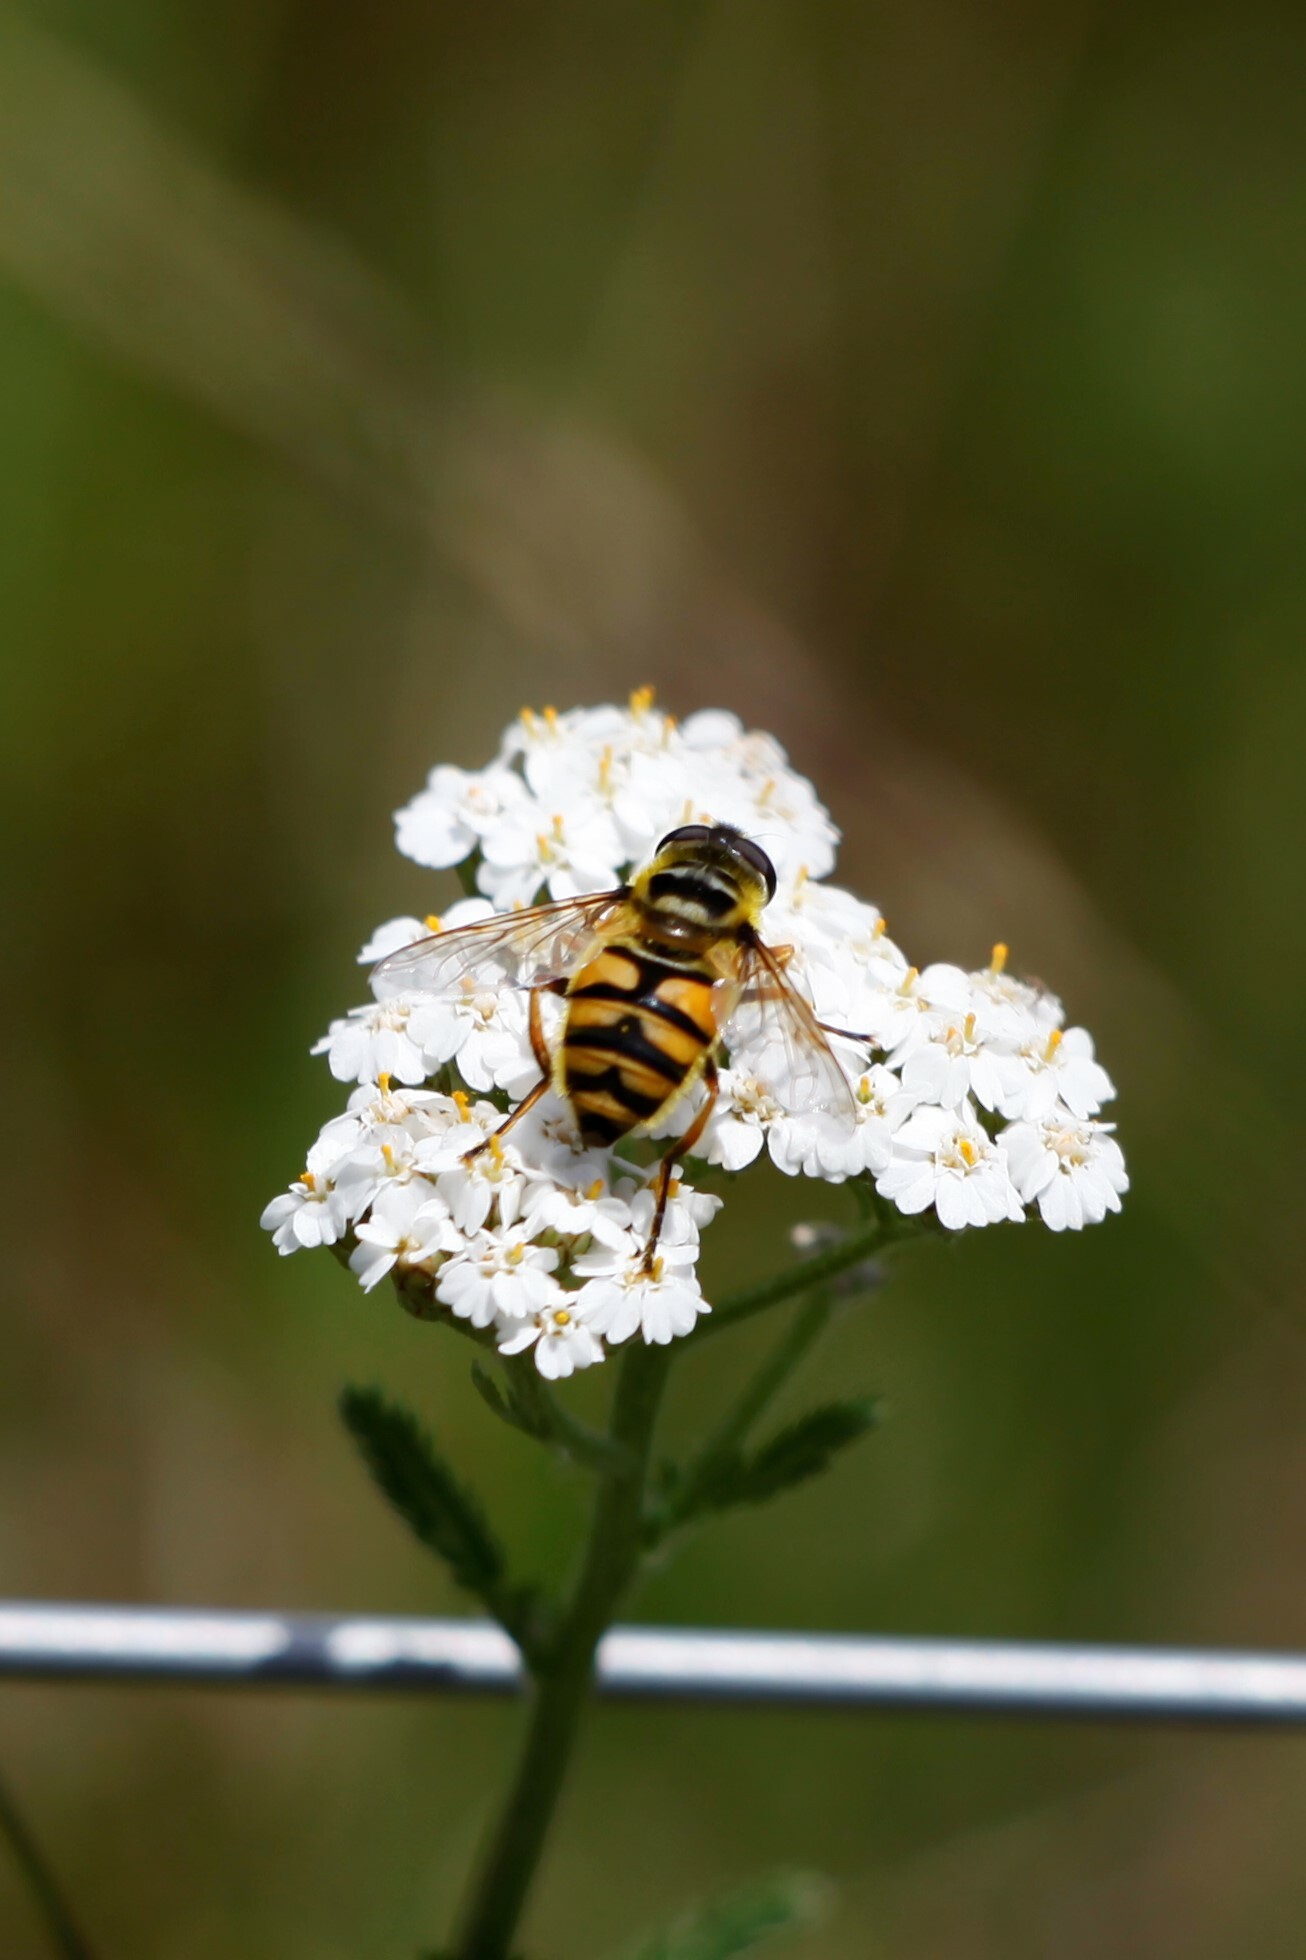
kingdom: Animalia
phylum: Arthropoda
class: Insecta
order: Diptera
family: Syrphidae
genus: Myathropa
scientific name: Myathropa florea
